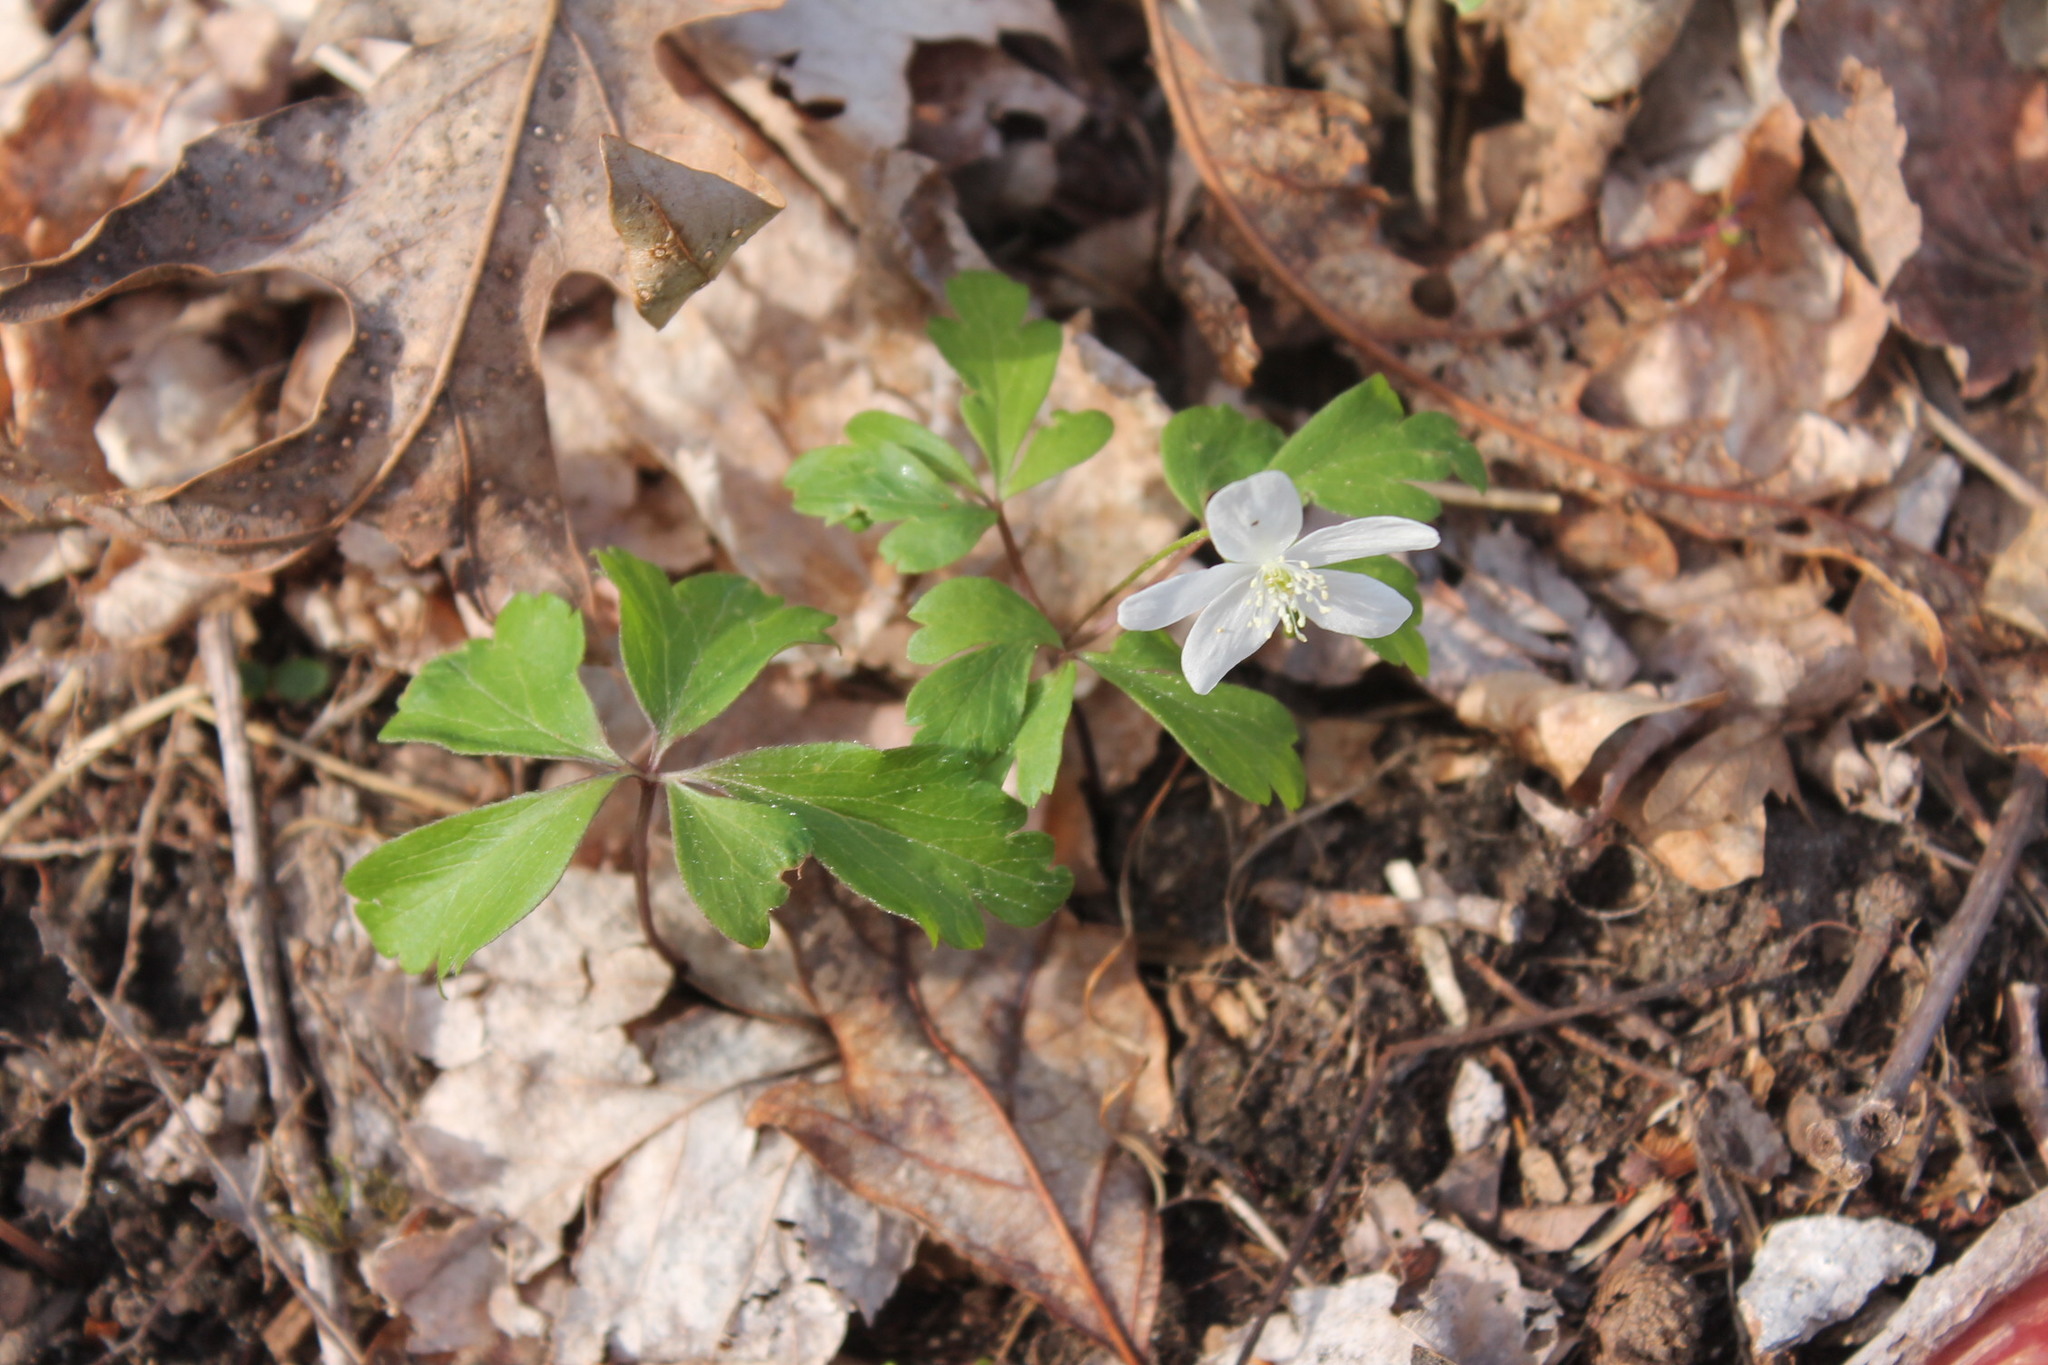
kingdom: Plantae
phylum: Tracheophyta
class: Magnoliopsida
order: Ranunculales
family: Ranunculaceae
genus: Anemone
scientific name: Anemone quinquefolia
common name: Wood anemone
